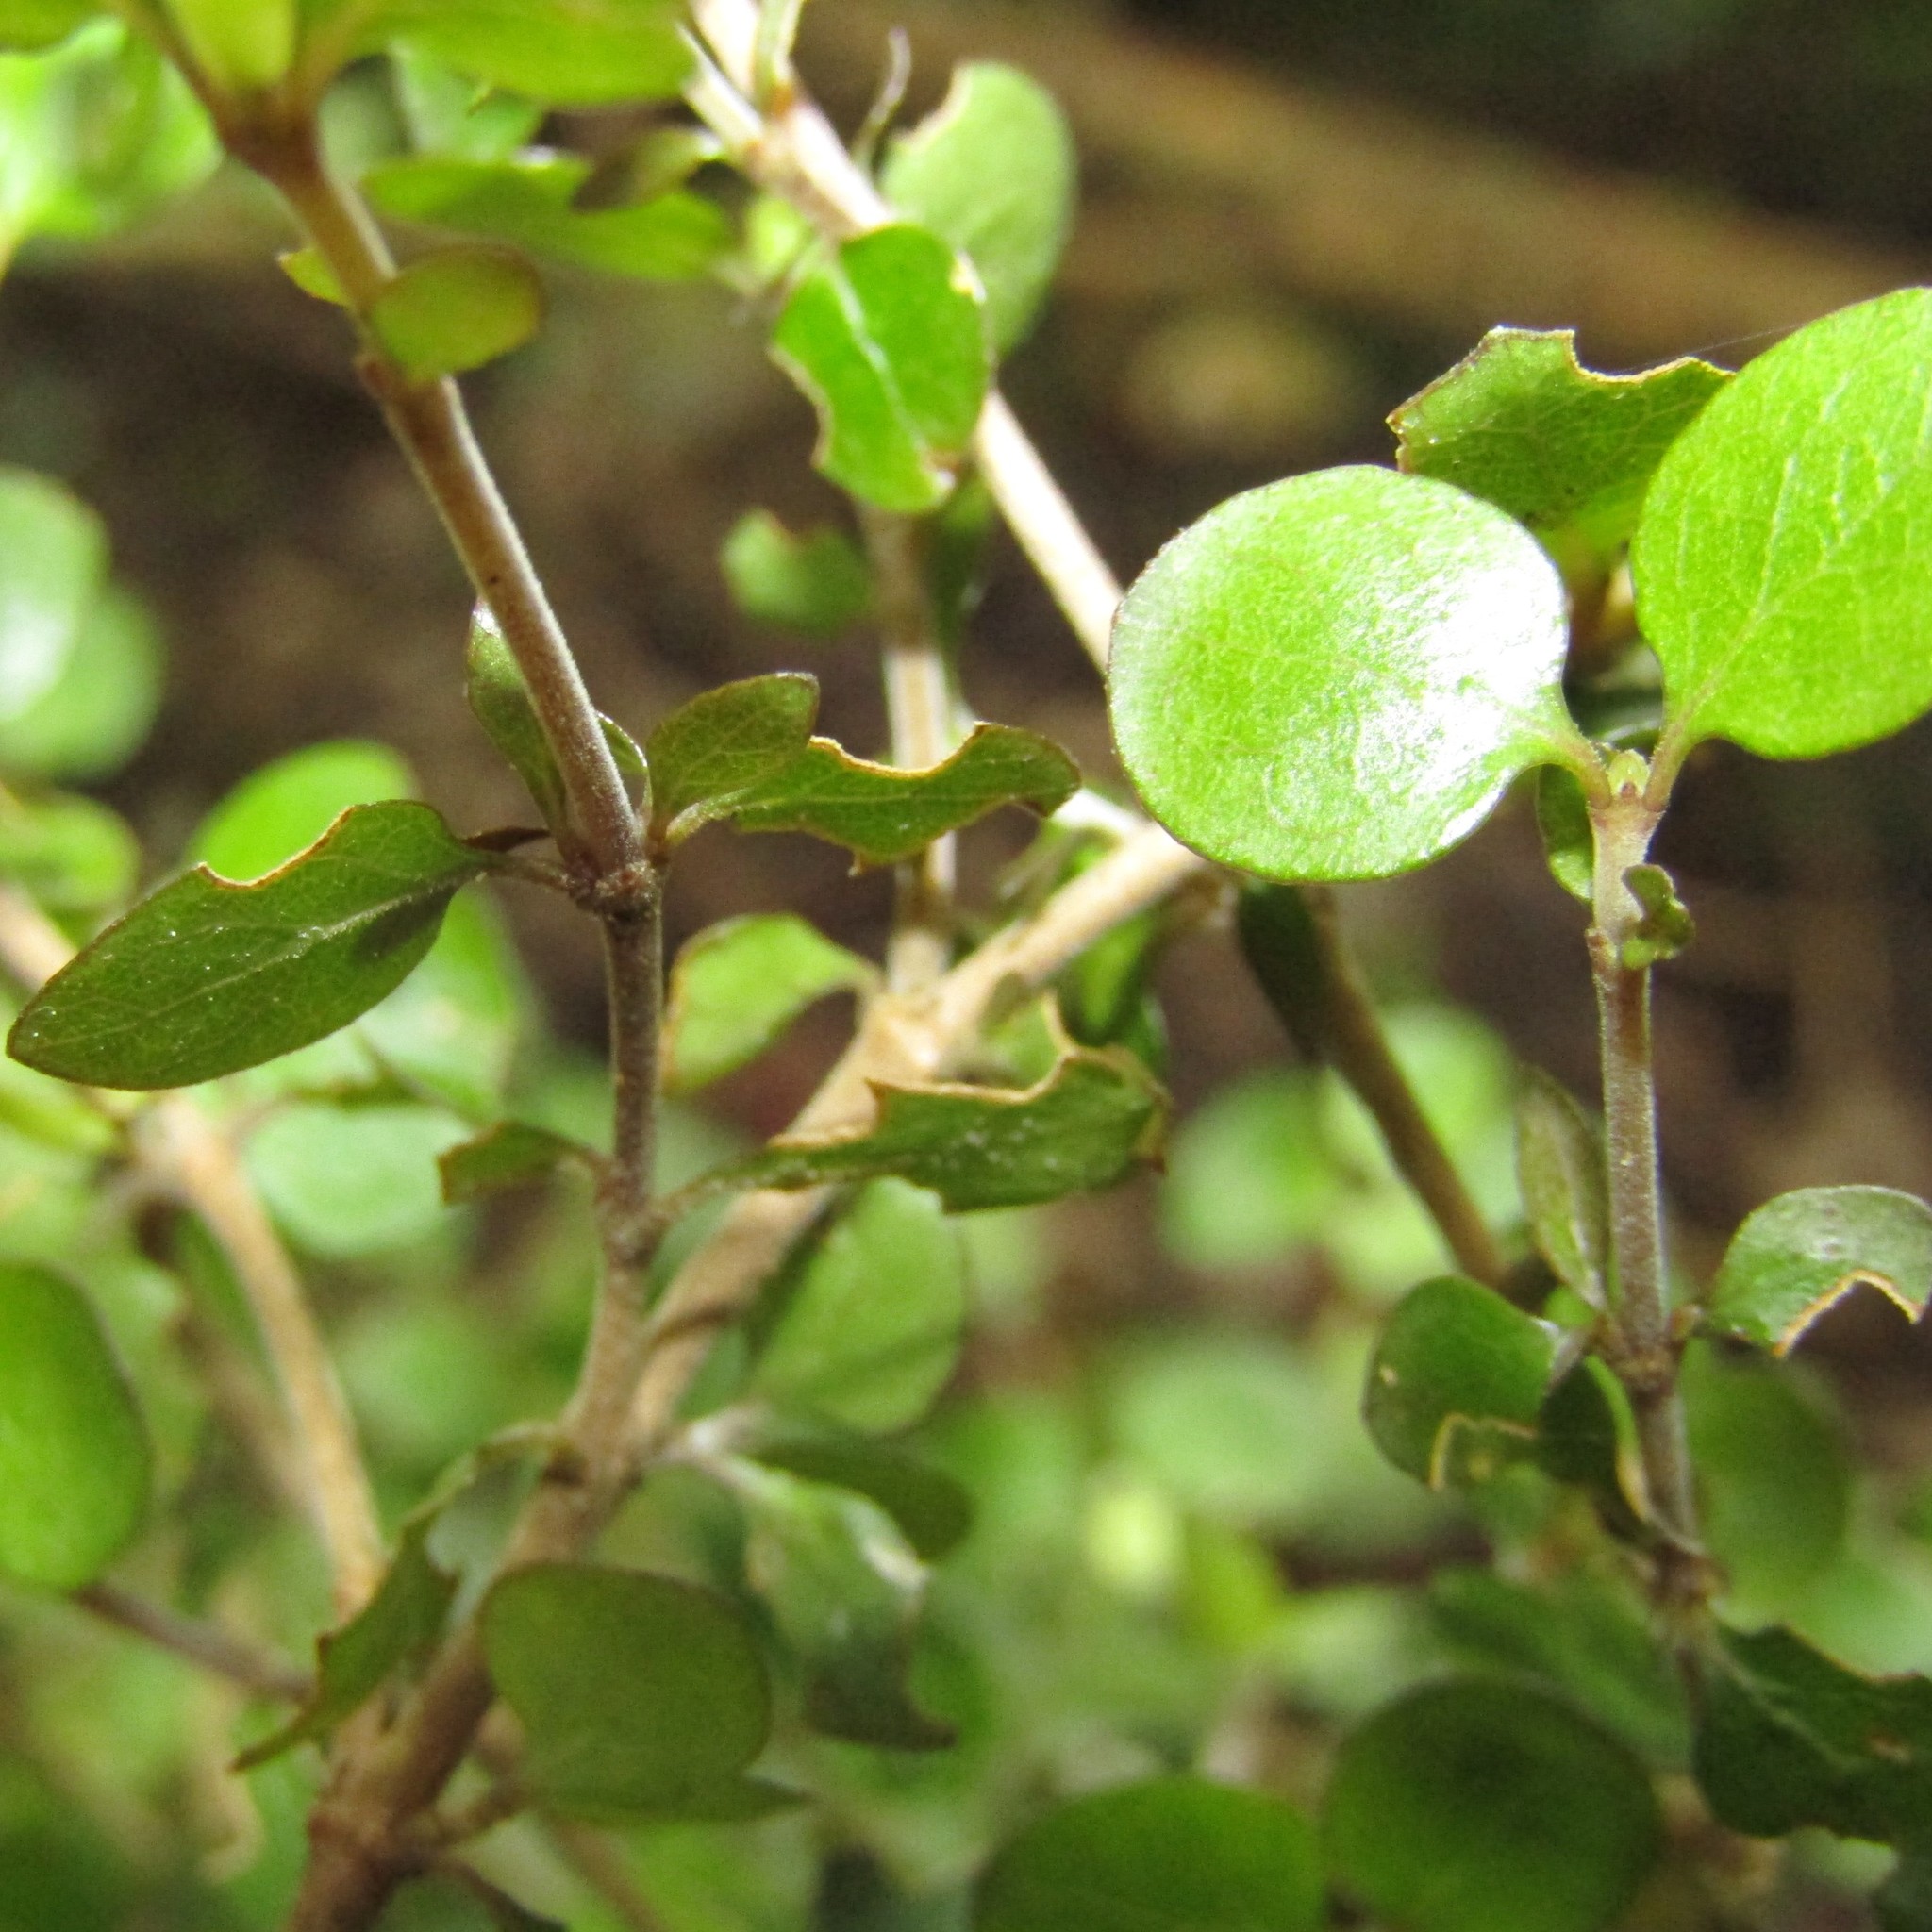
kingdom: Plantae
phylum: Tracheophyta
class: Magnoliopsida
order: Gentianales
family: Rubiaceae
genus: Coprosma
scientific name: Coprosma rhamnoides
